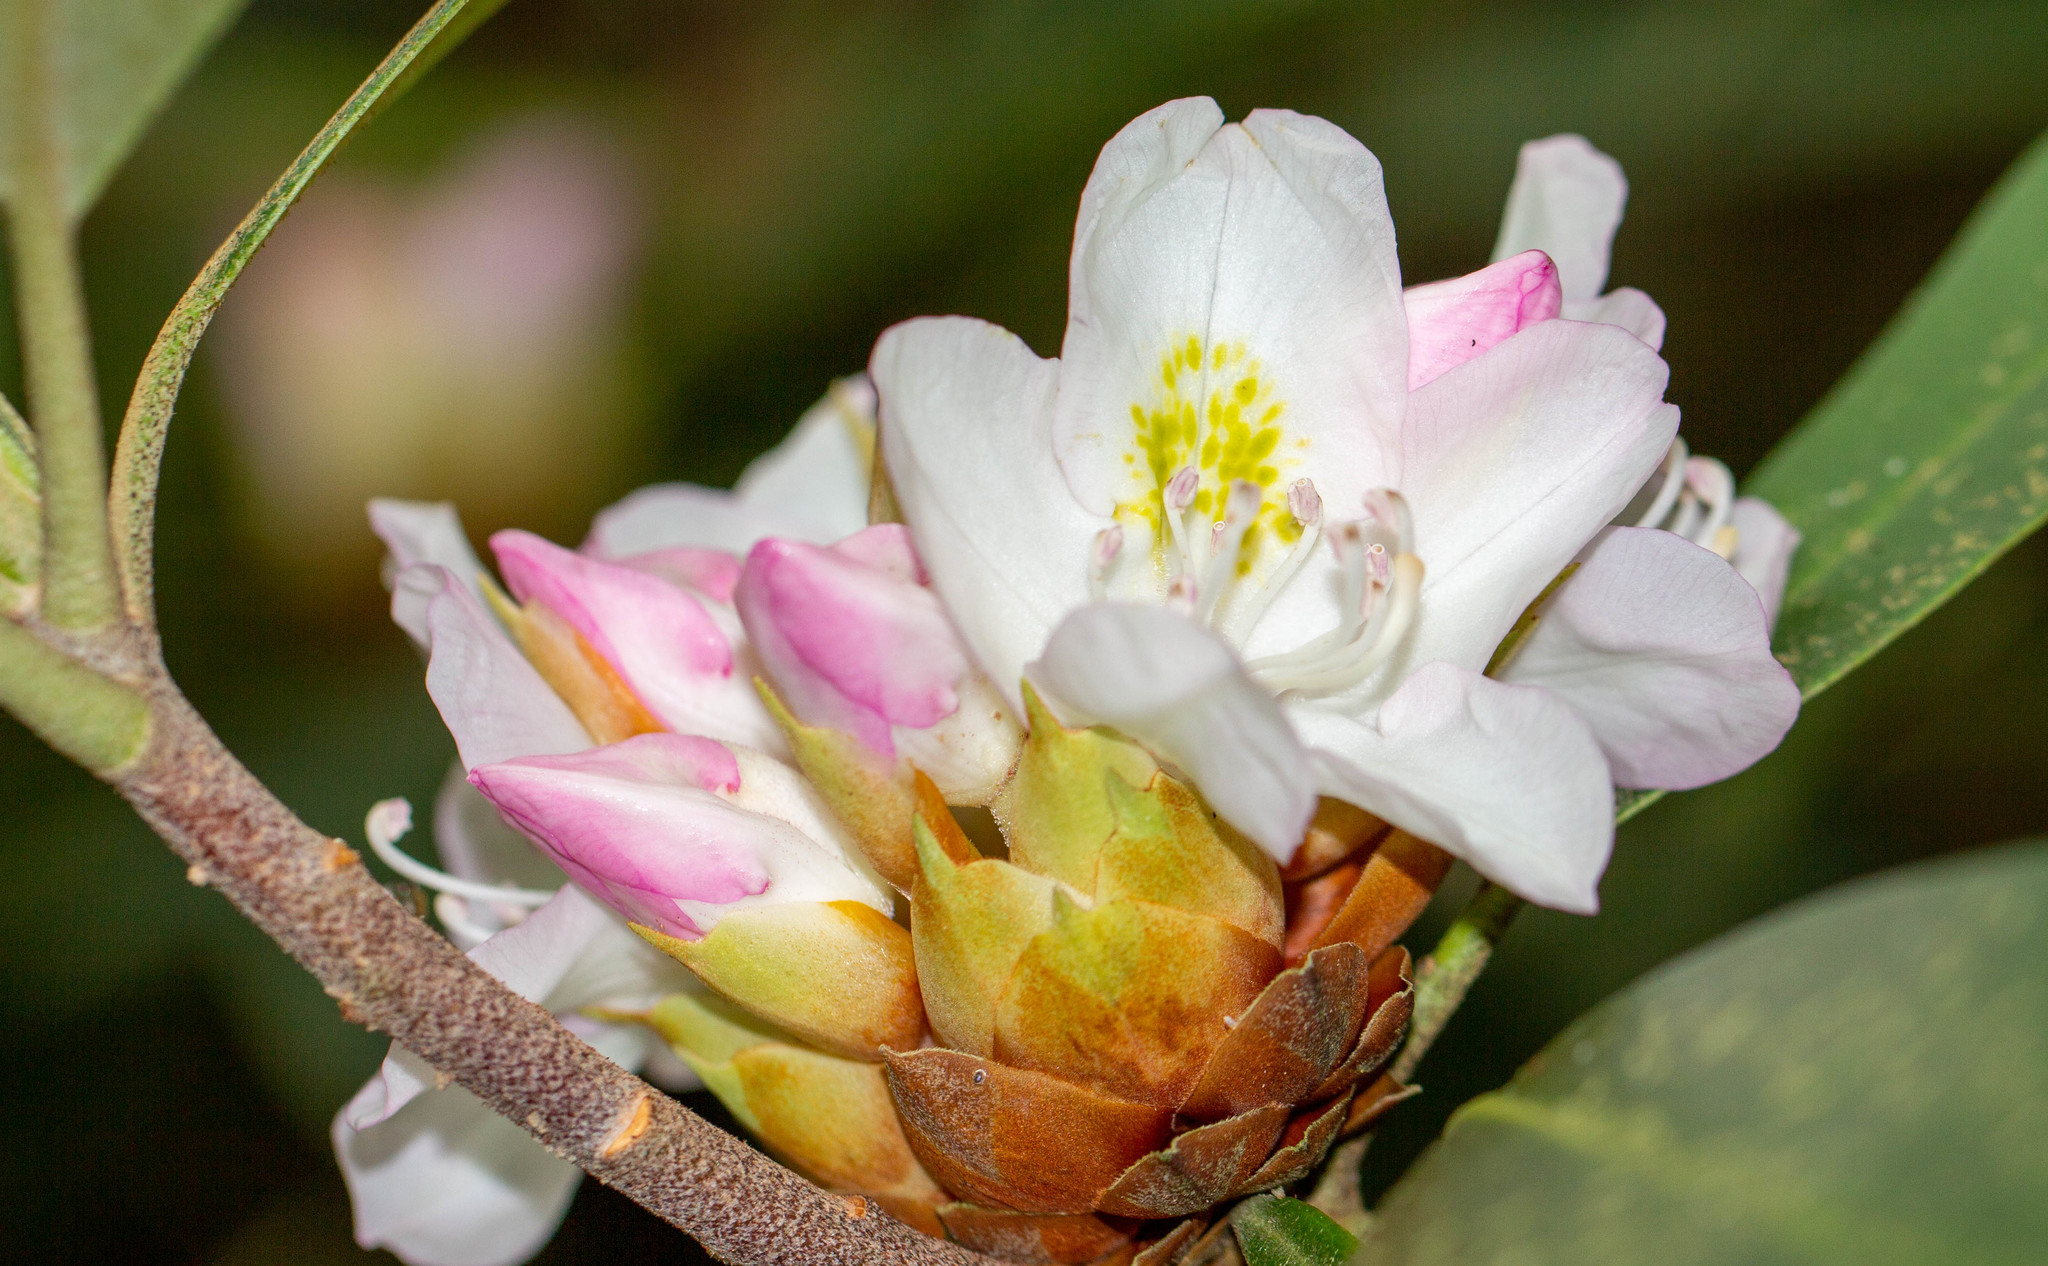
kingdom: Plantae
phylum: Tracheophyta
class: Magnoliopsida
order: Ericales
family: Ericaceae
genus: Rhododendron
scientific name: Rhododendron maximum
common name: Great rhododendron
